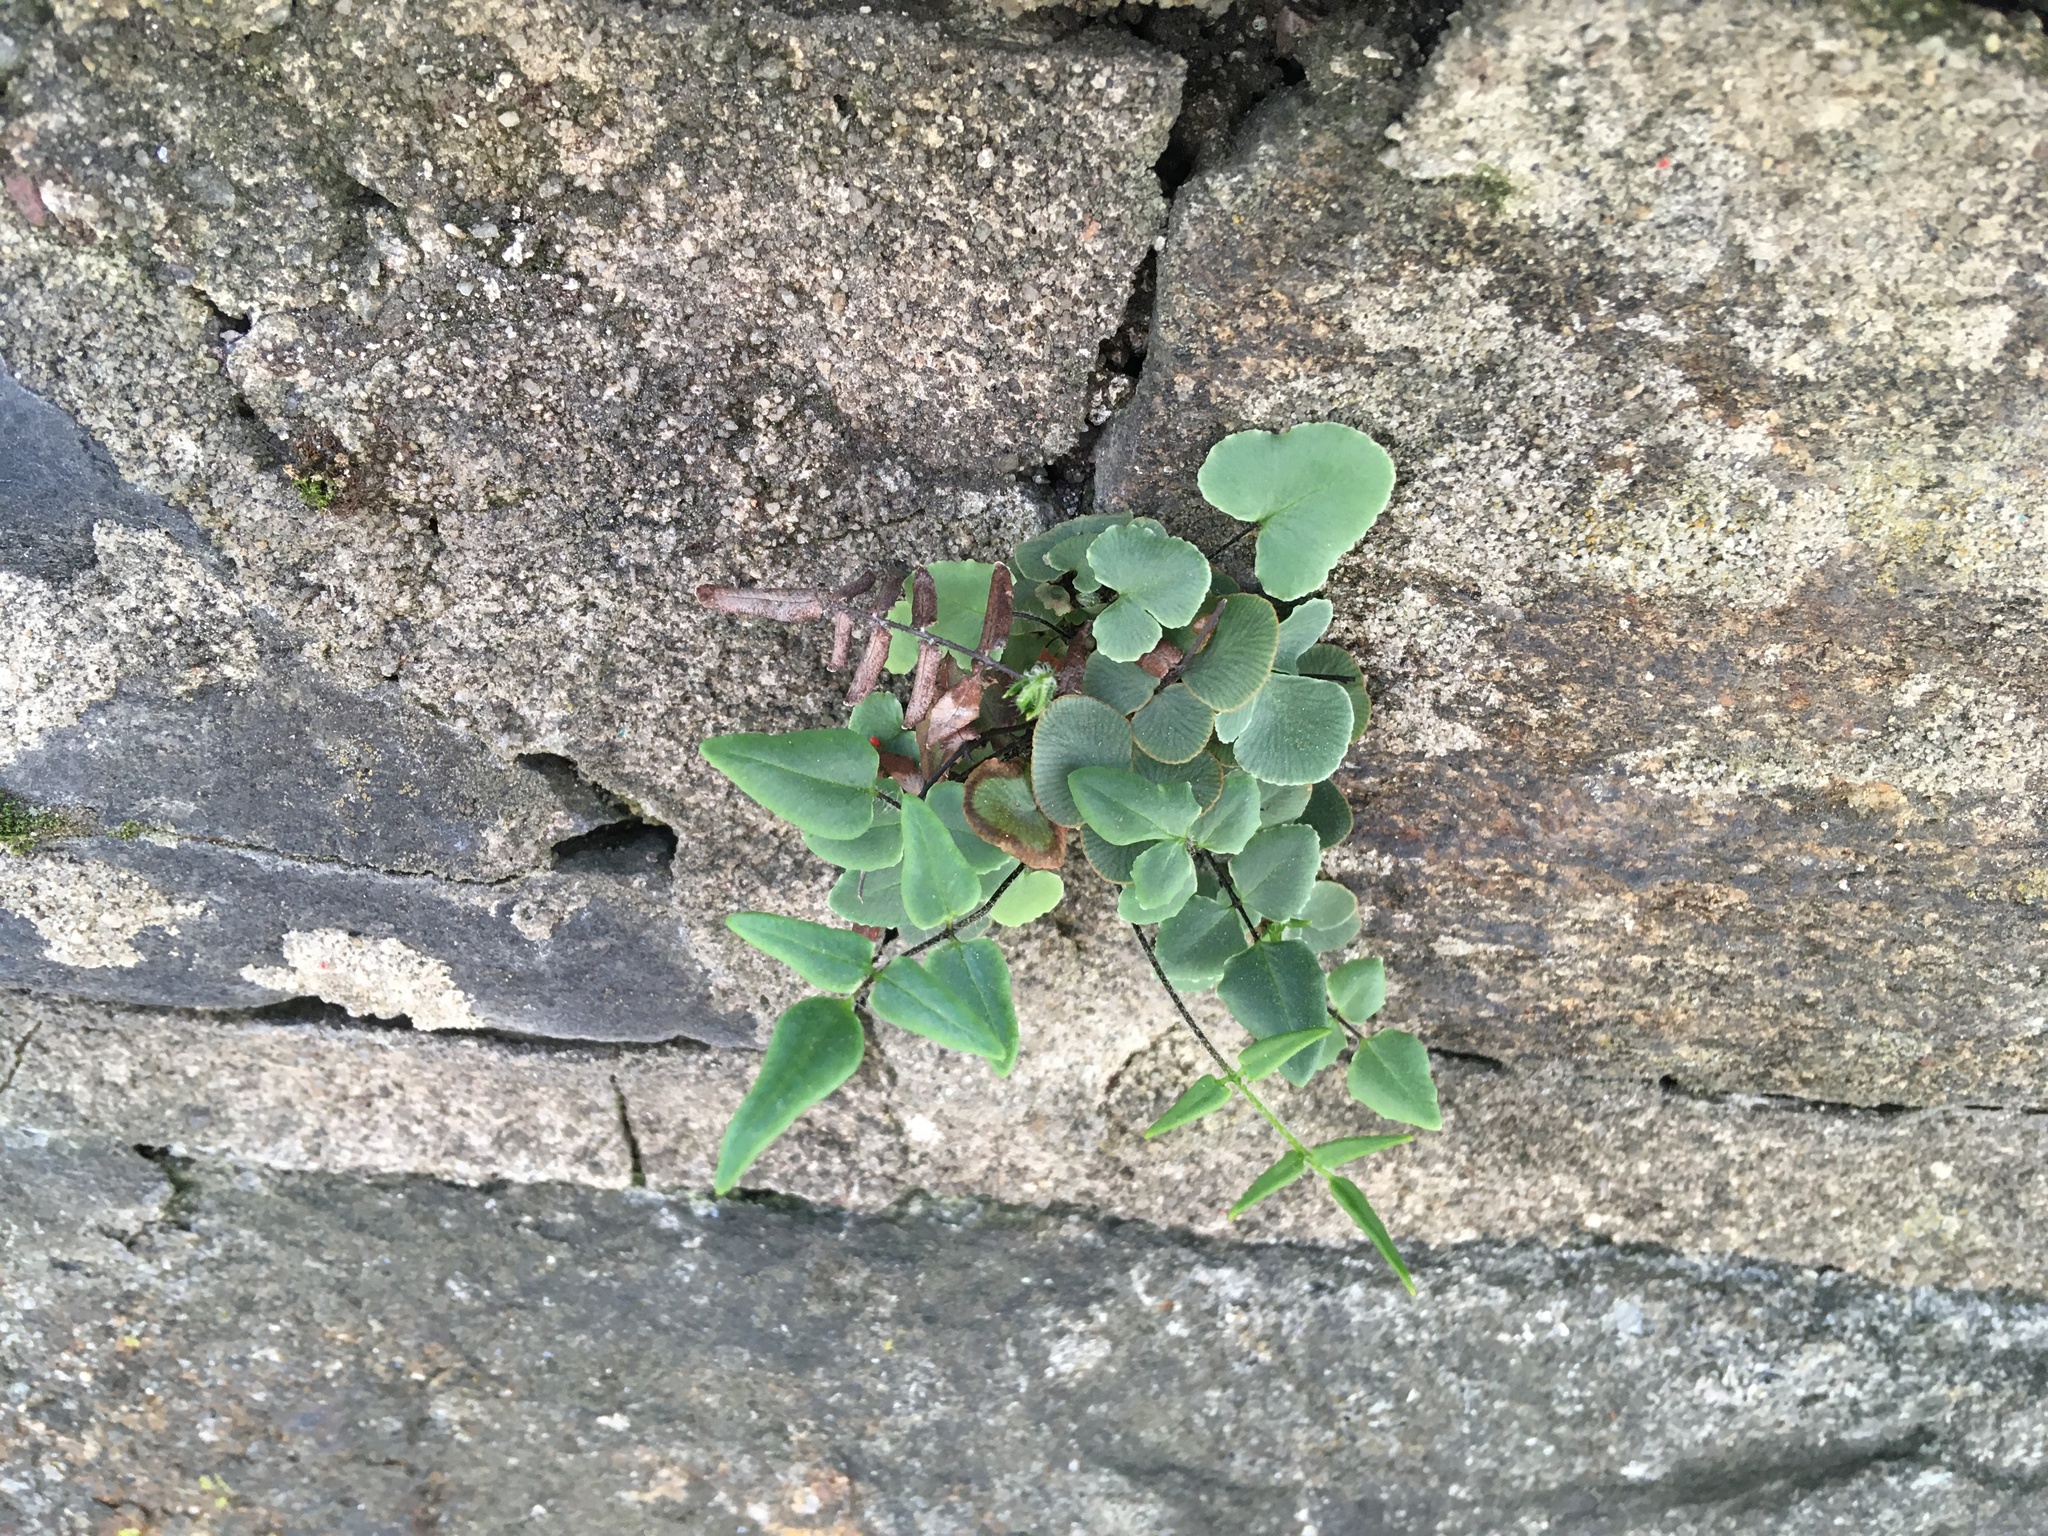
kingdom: Plantae
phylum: Tracheophyta
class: Polypodiopsida
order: Polypodiales
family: Pteridaceae
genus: Pellaea
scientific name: Pellaea atropurpurea
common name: Hairy cliffbrake
